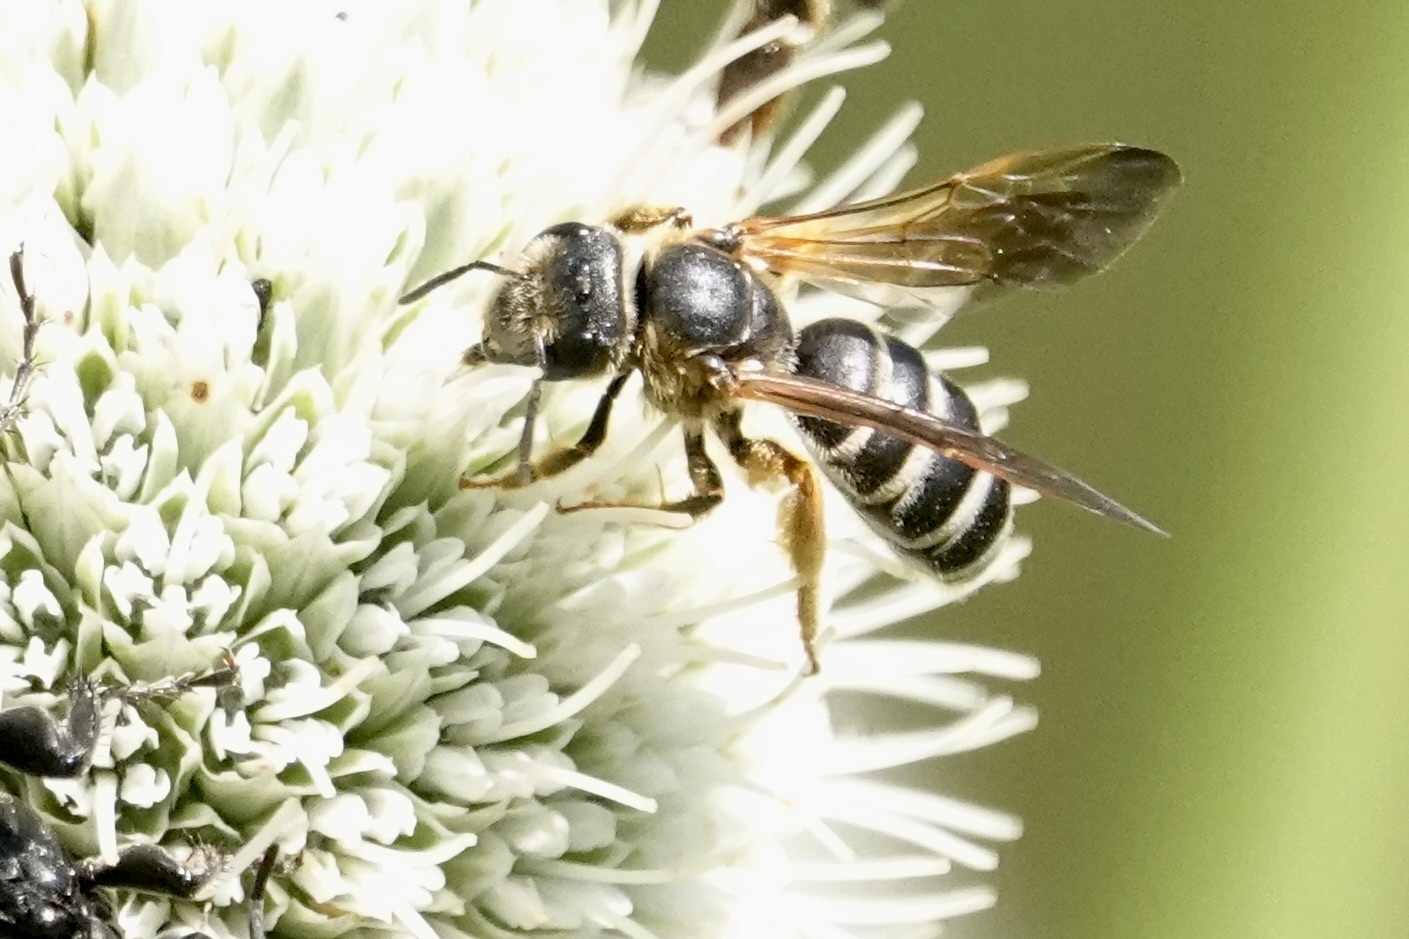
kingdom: Animalia
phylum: Arthropoda
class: Insecta
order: Hymenoptera
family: Halictidae
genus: Halictus
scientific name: Halictus parallelus
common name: Parallel-striped sweat bee
